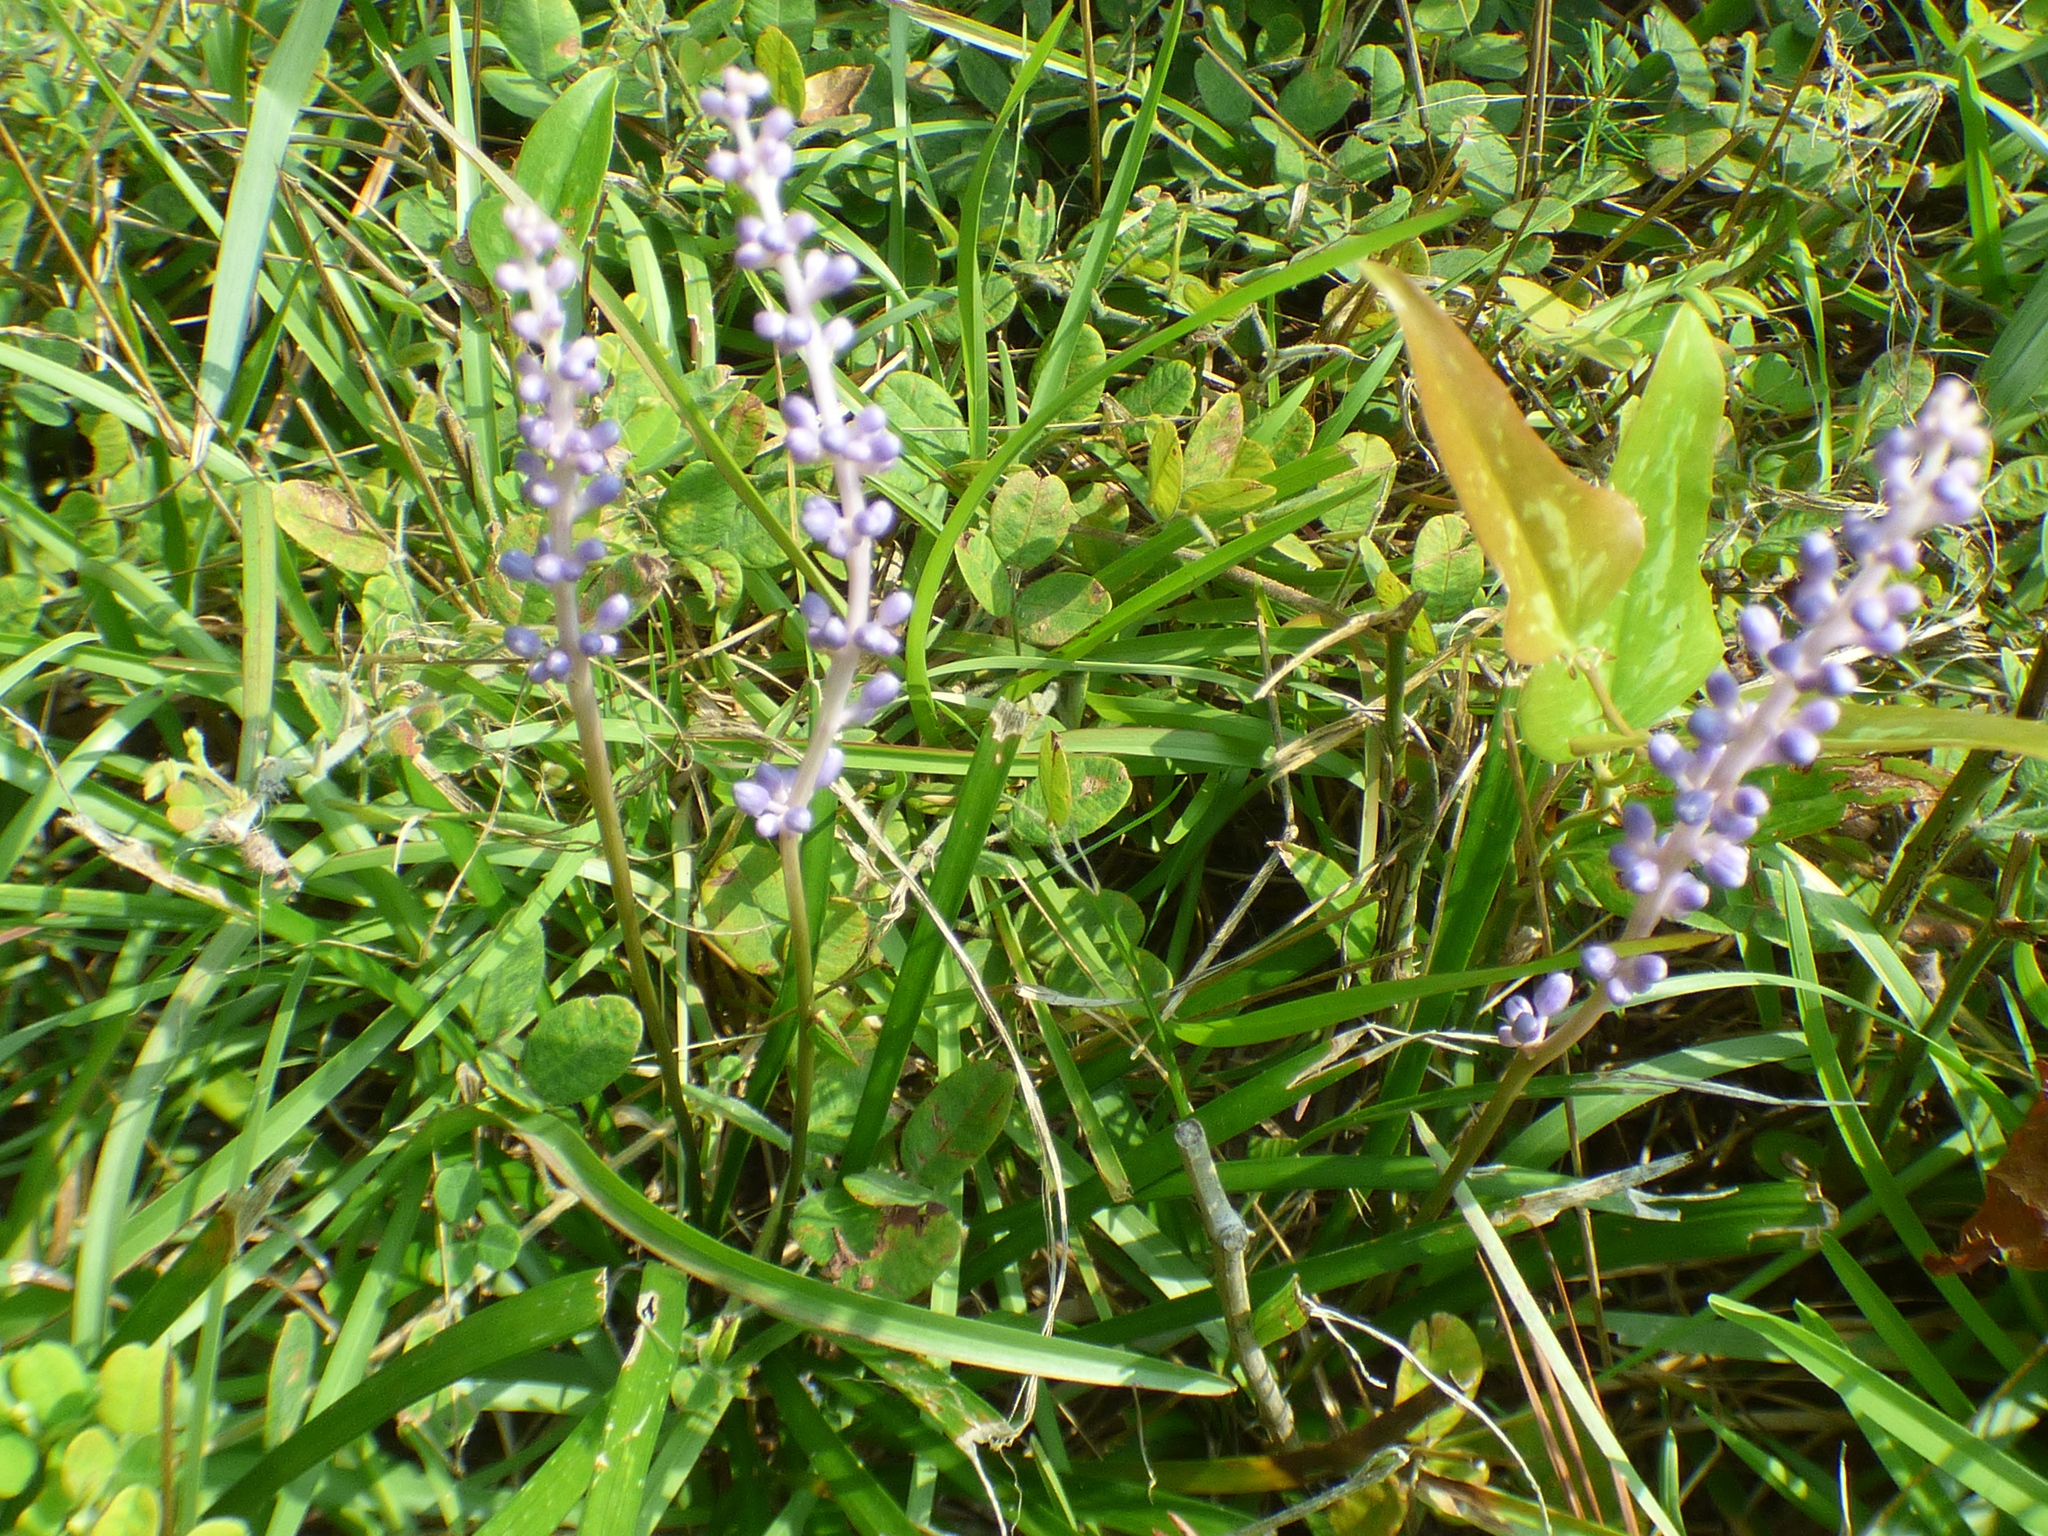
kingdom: Plantae
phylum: Tracheophyta
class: Liliopsida
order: Asparagales
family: Asparagaceae
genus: Liriope
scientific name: Liriope muscari
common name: Big blue lilyturf
